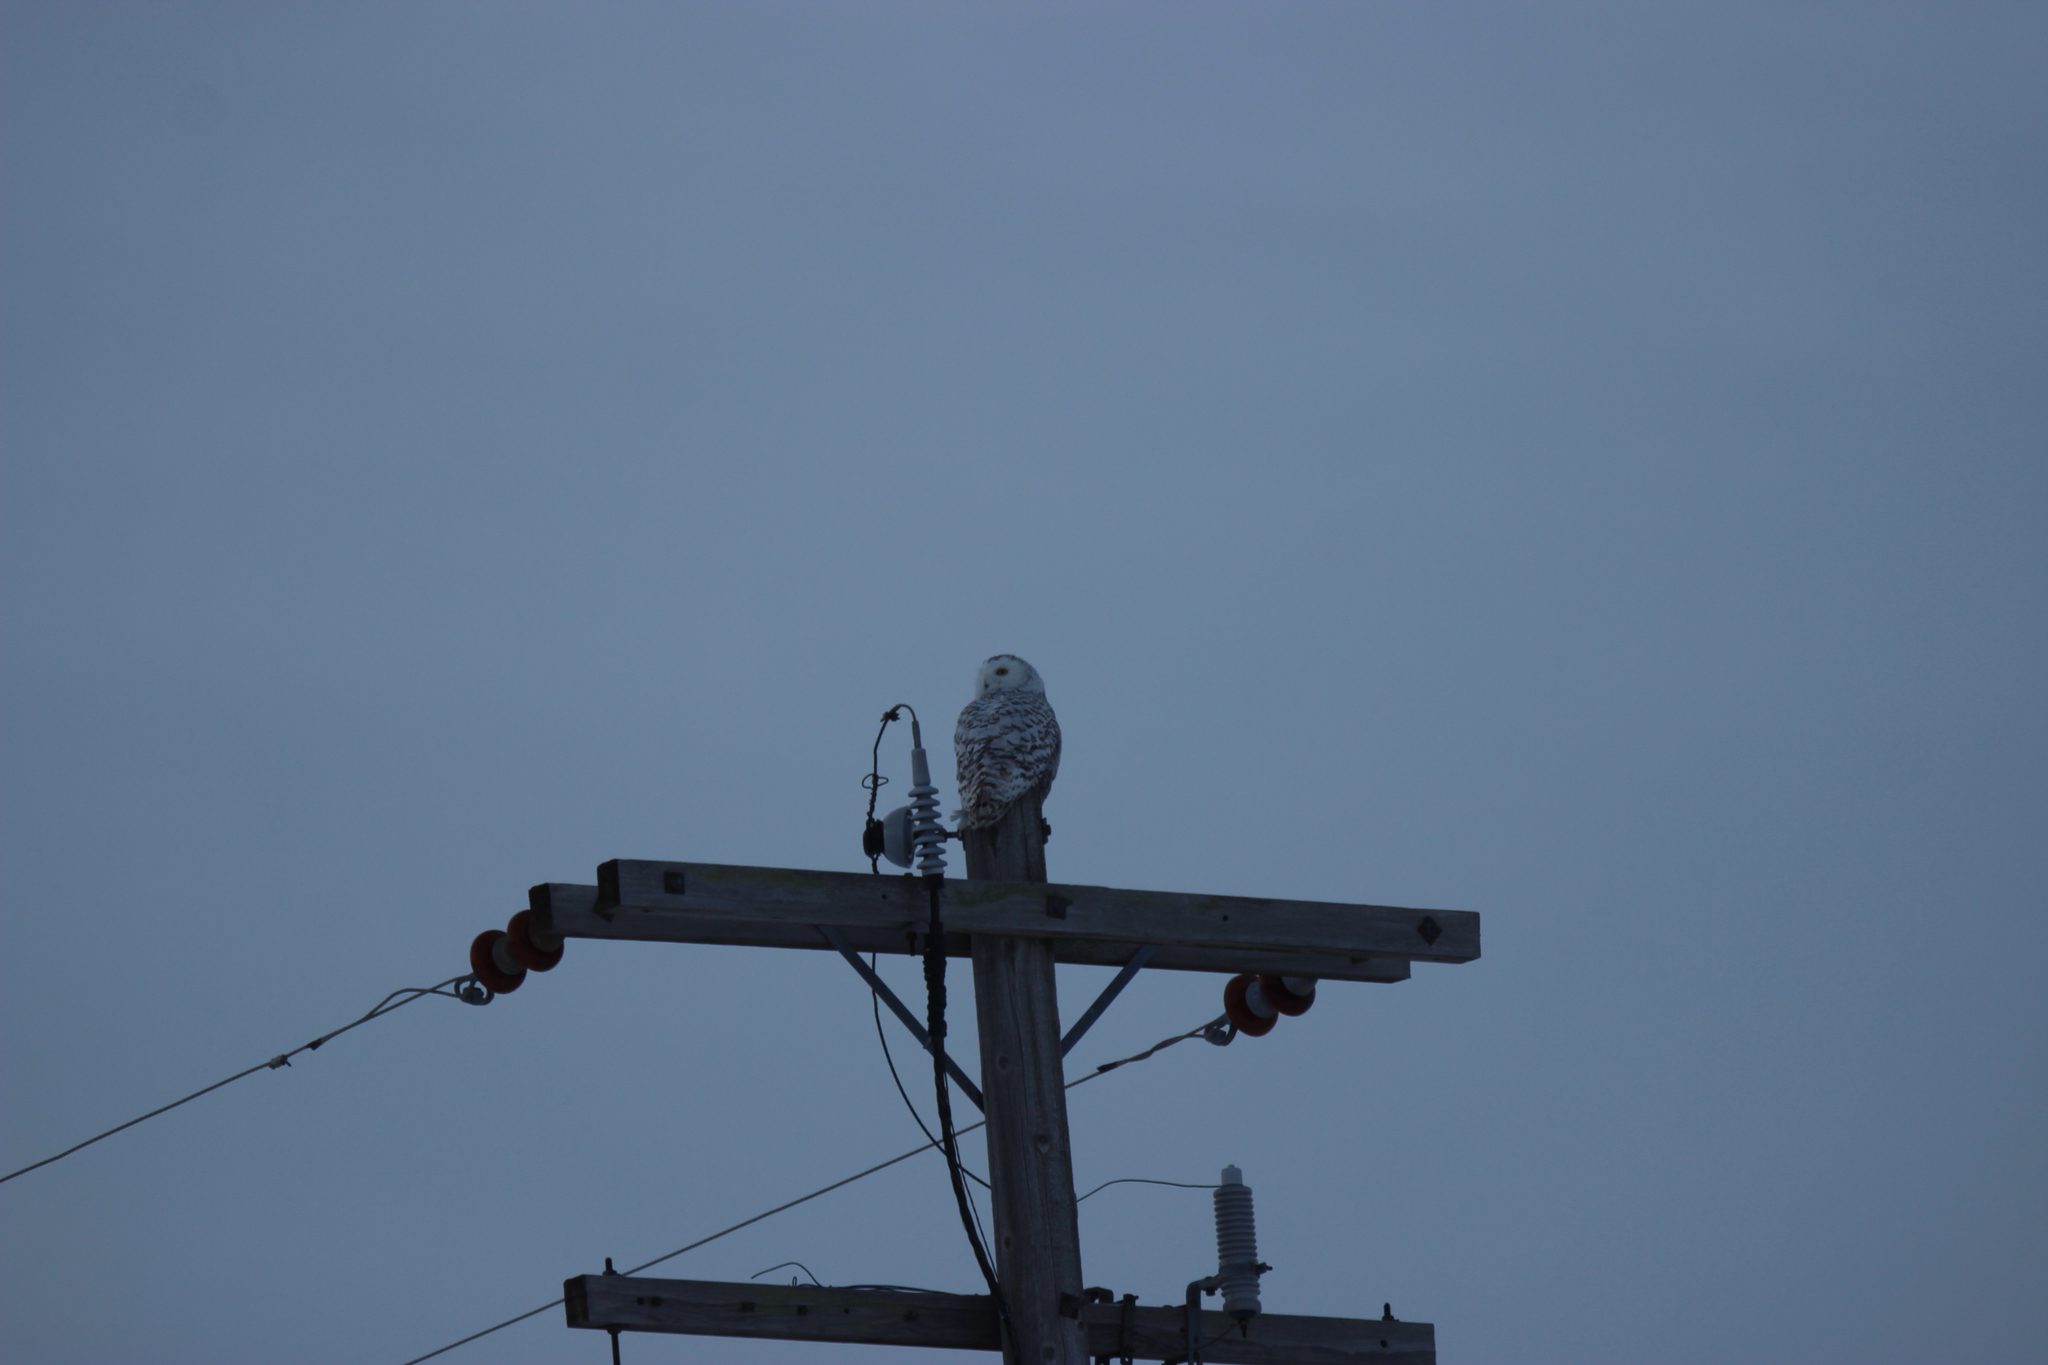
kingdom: Animalia
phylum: Chordata
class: Aves
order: Strigiformes
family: Strigidae
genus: Bubo
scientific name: Bubo scandiacus
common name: Snowy owl
